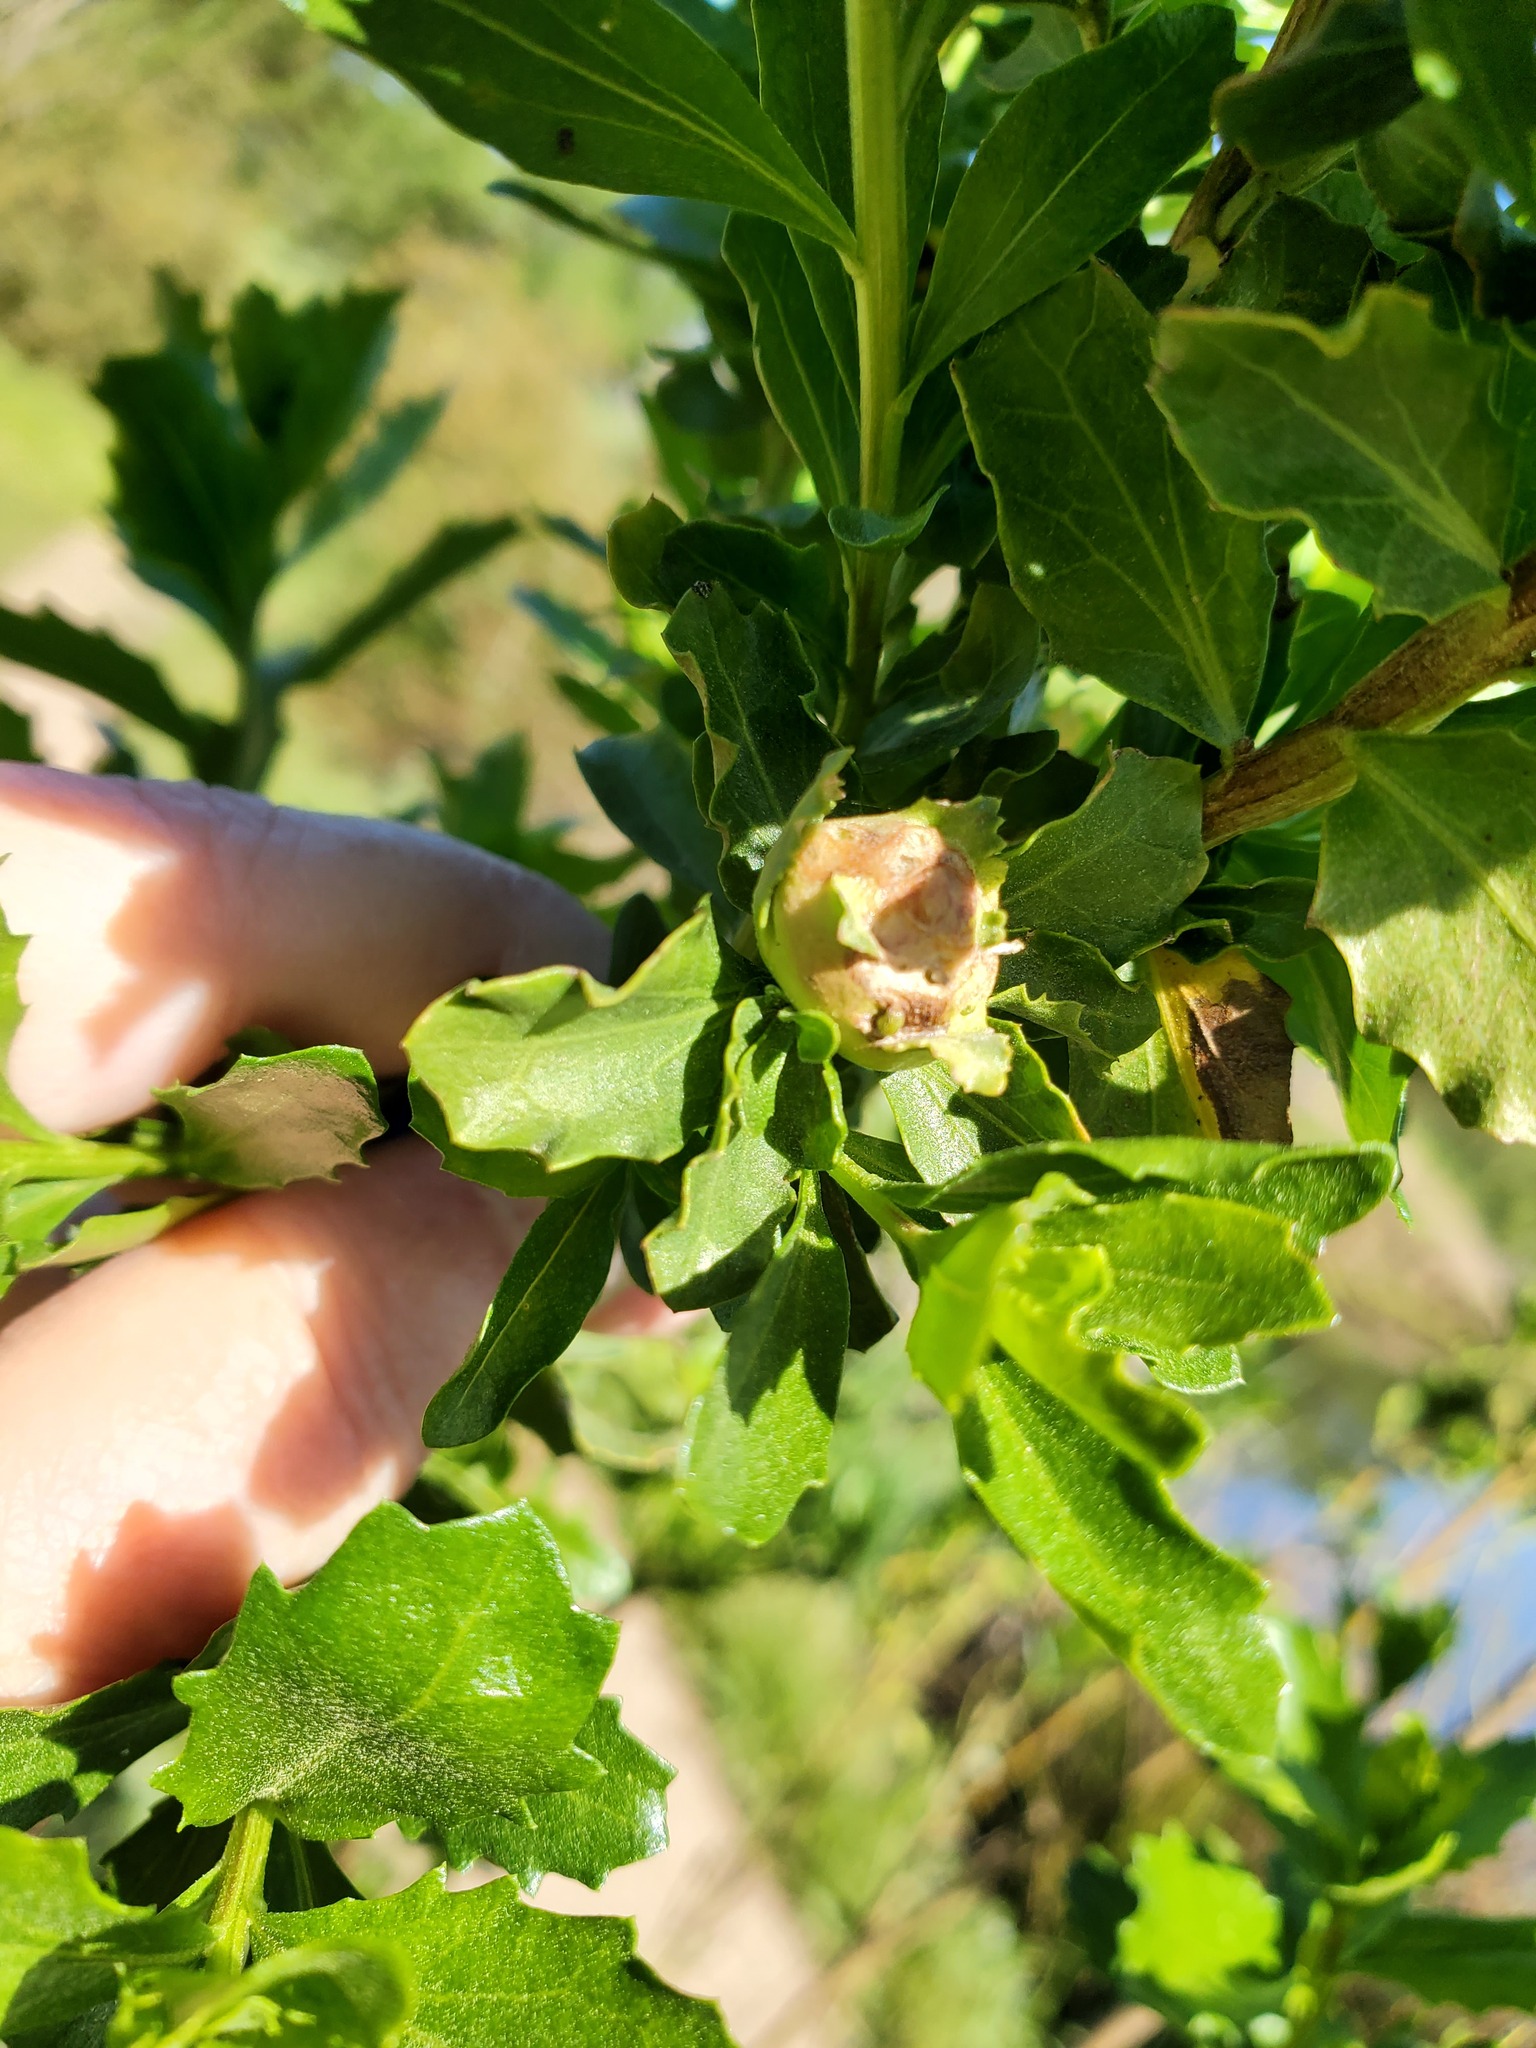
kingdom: Animalia
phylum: Arthropoda
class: Insecta
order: Diptera
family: Cecidomyiidae
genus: Rhopalomyia
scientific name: Rhopalomyia californica
